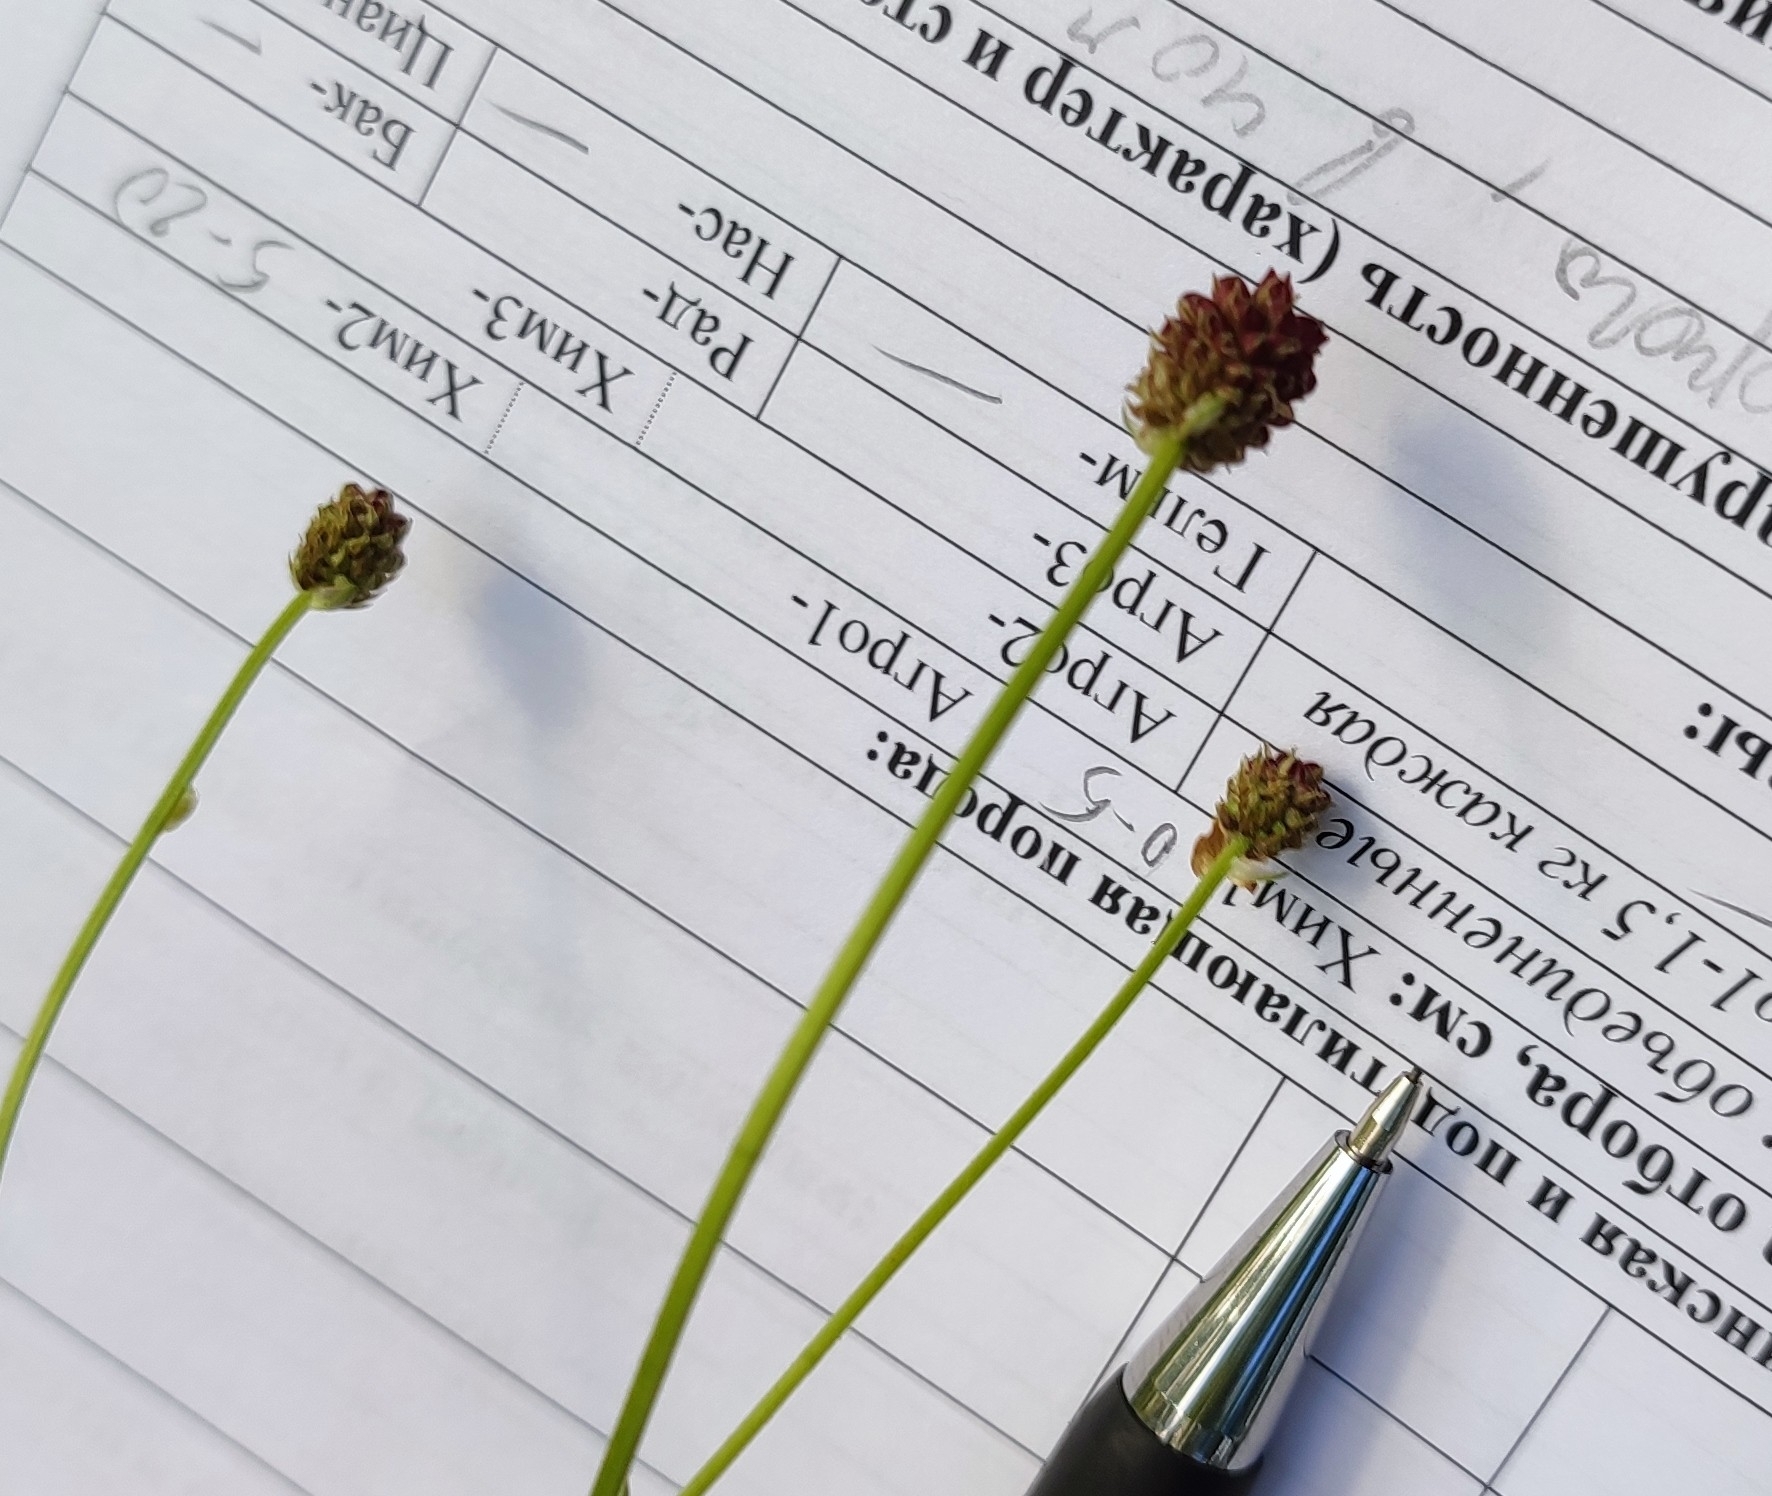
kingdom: Plantae
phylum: Tracheophyta
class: Magnoliopsida
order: Rosales
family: Rosaceae
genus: Sanguisorba
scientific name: Sanguisorba officinalis
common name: Great burnet
